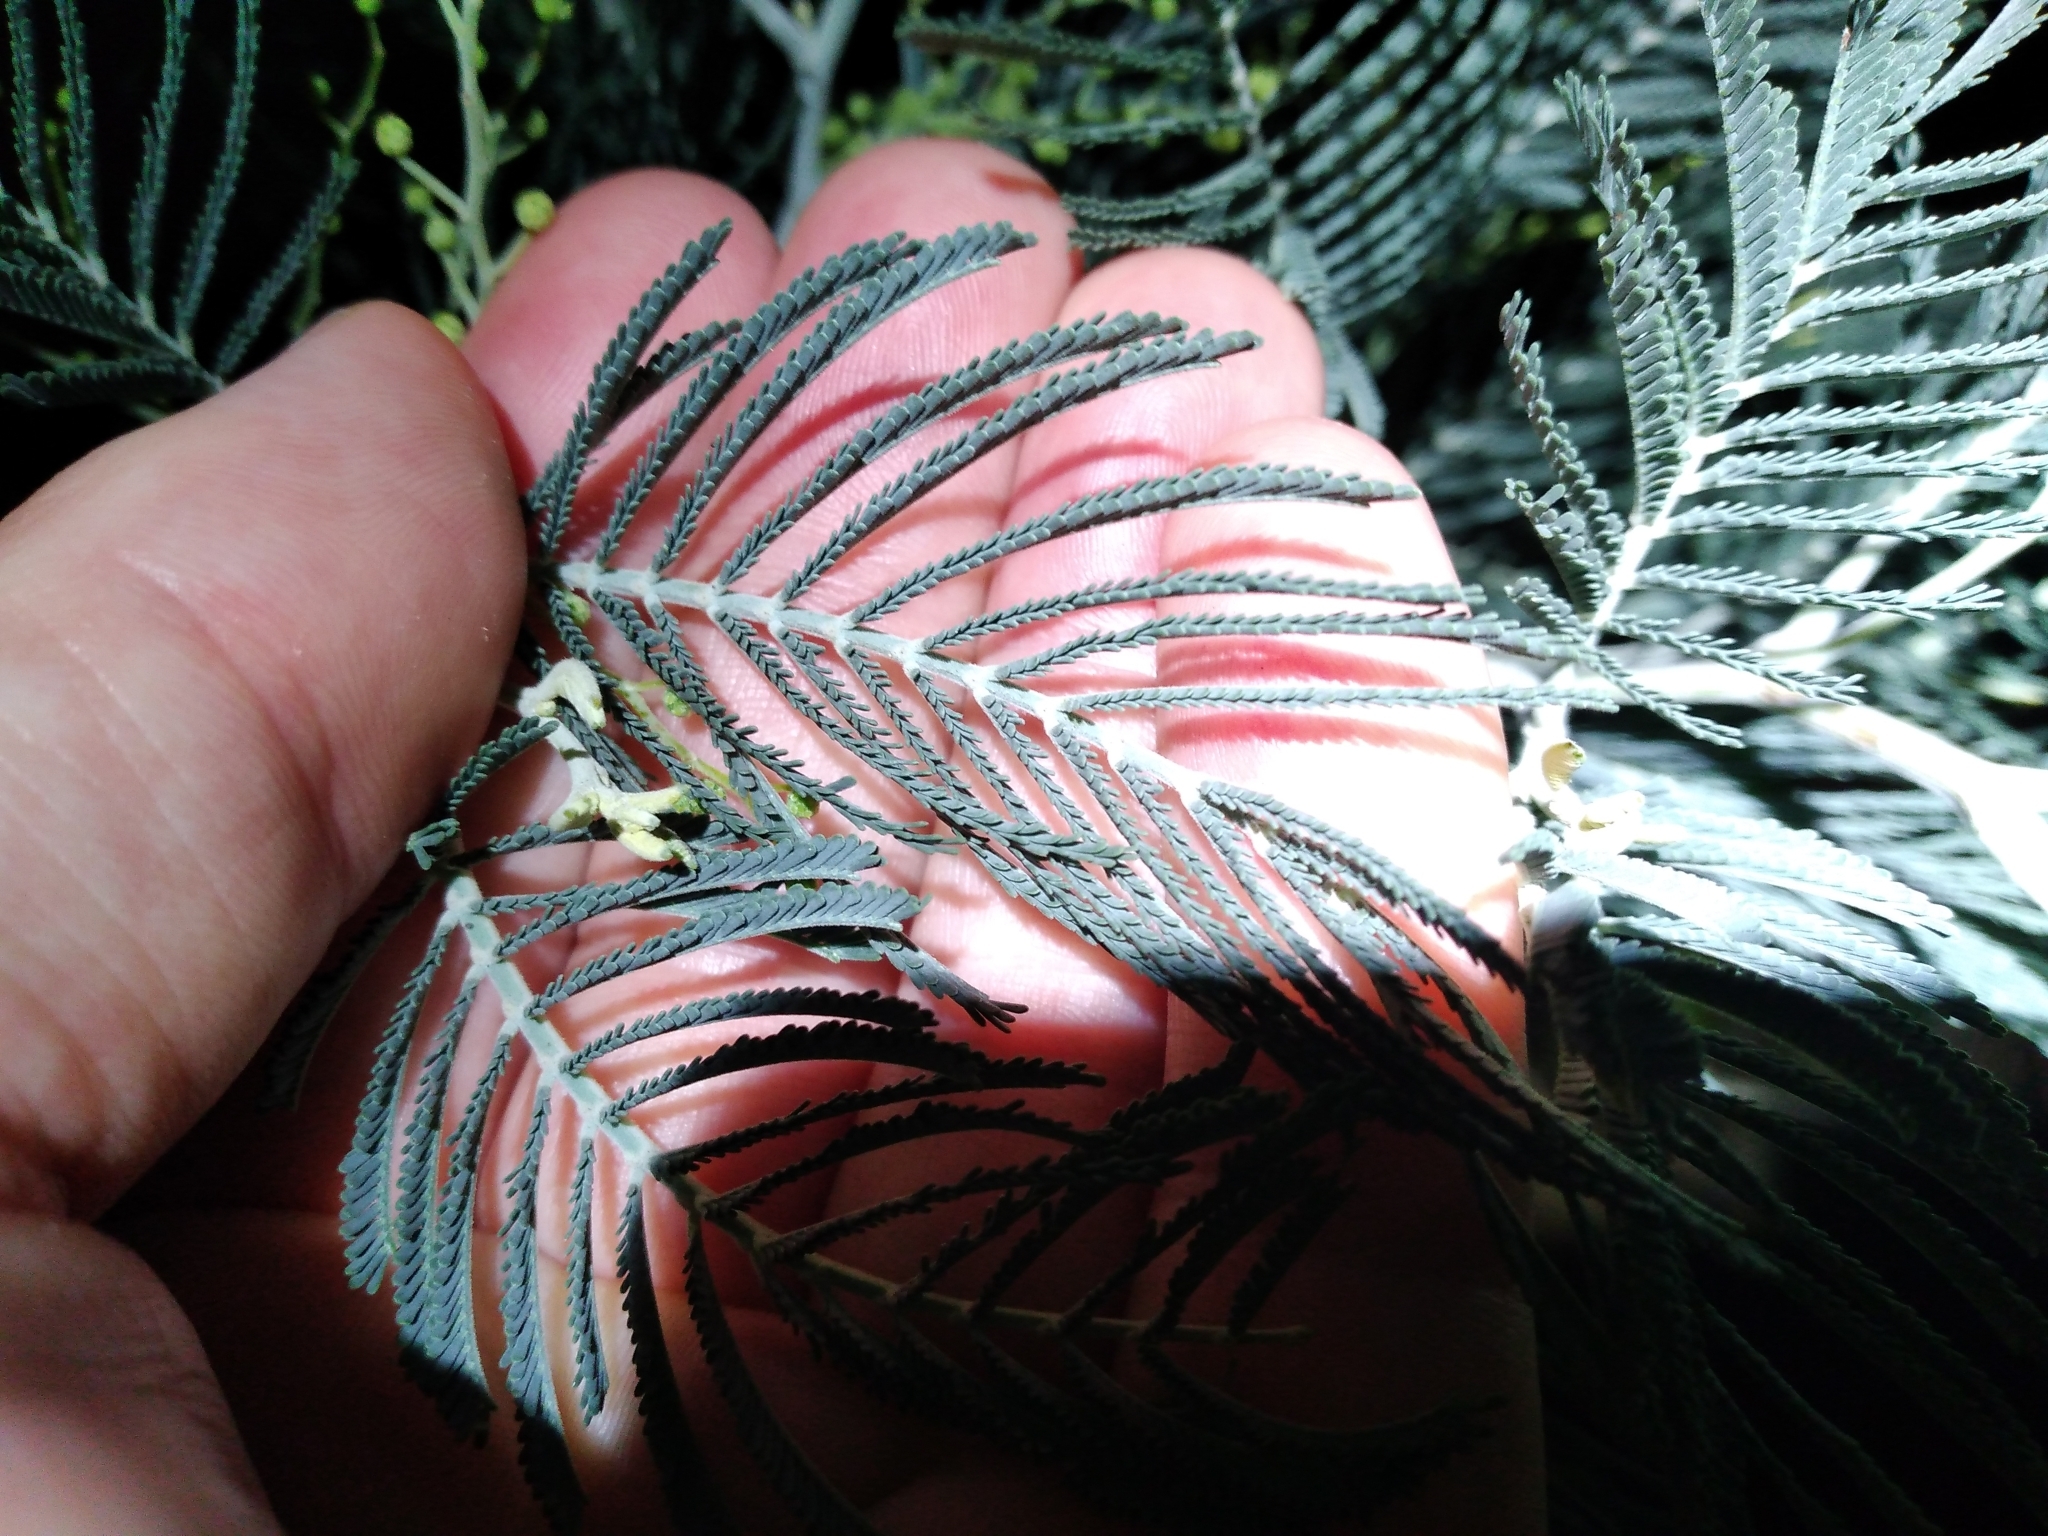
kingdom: Plantae
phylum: Tracheophyta
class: Magnoliopsida
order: Fabales
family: Fabaceae
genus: Acacia
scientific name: Acacia dealbata
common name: Silver wattle
